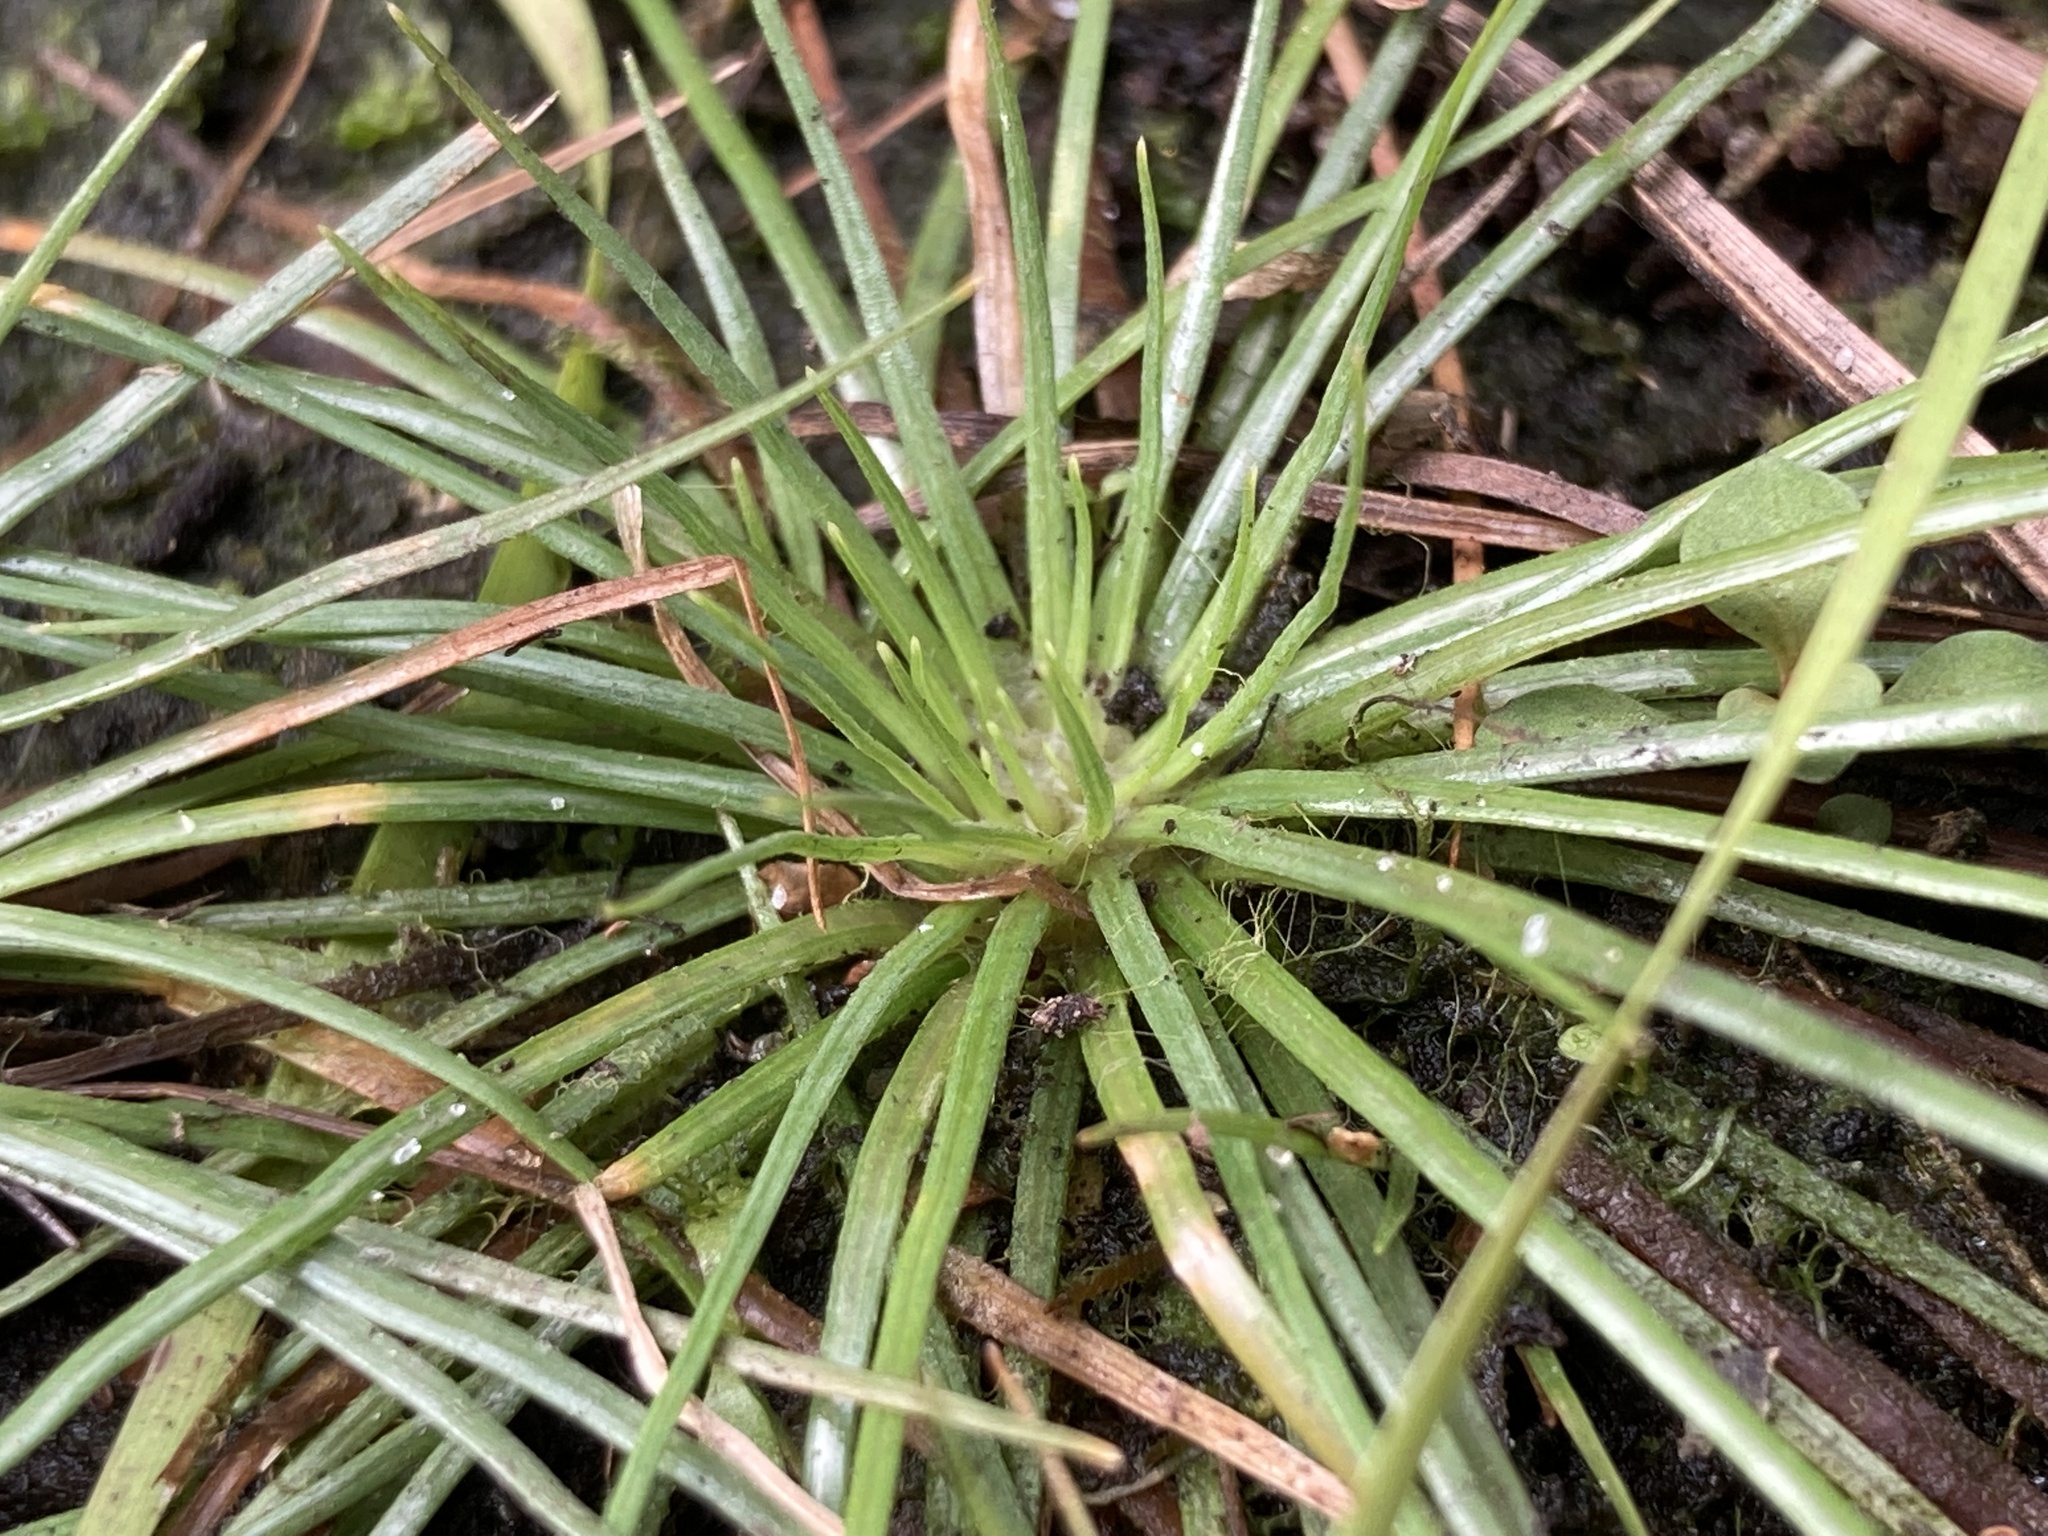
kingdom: Plantae
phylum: Tracheophyta
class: Liliopsida
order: Poales
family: Eriocaulaceae
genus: Syngonanthus
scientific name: Syngonanthus flavidulus
